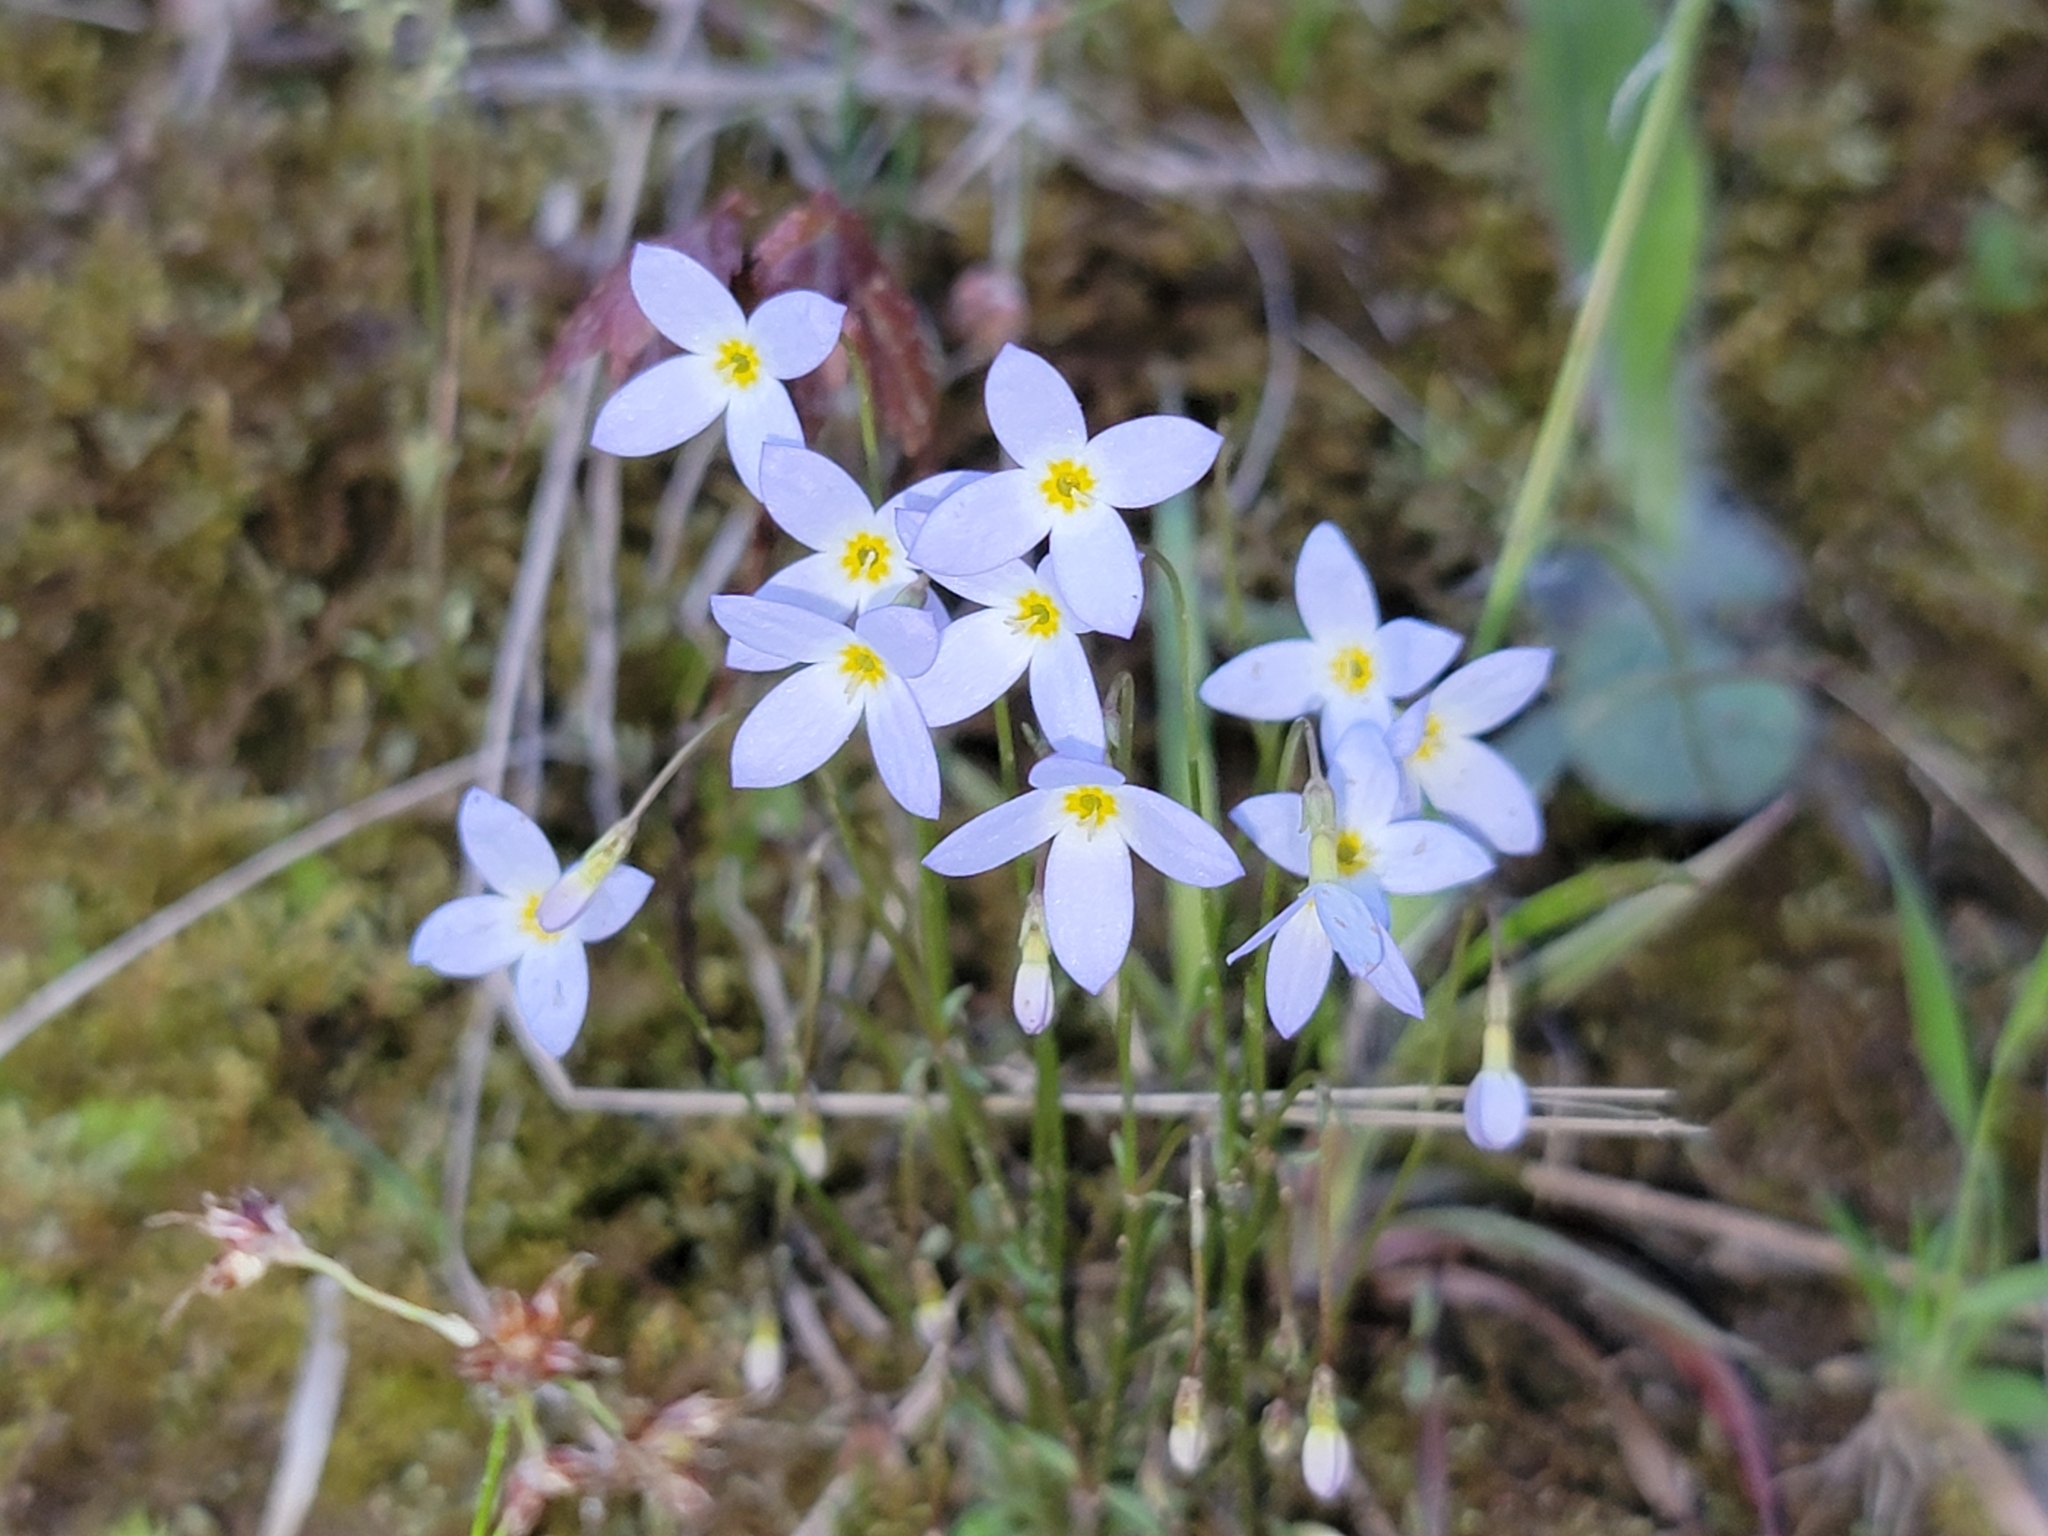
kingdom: Plantae
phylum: Tracheophyta
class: Magnoliopsida
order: Gentianales
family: Rubiaceae
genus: Houstonia
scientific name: Houstonia caerulea
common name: Bluets
